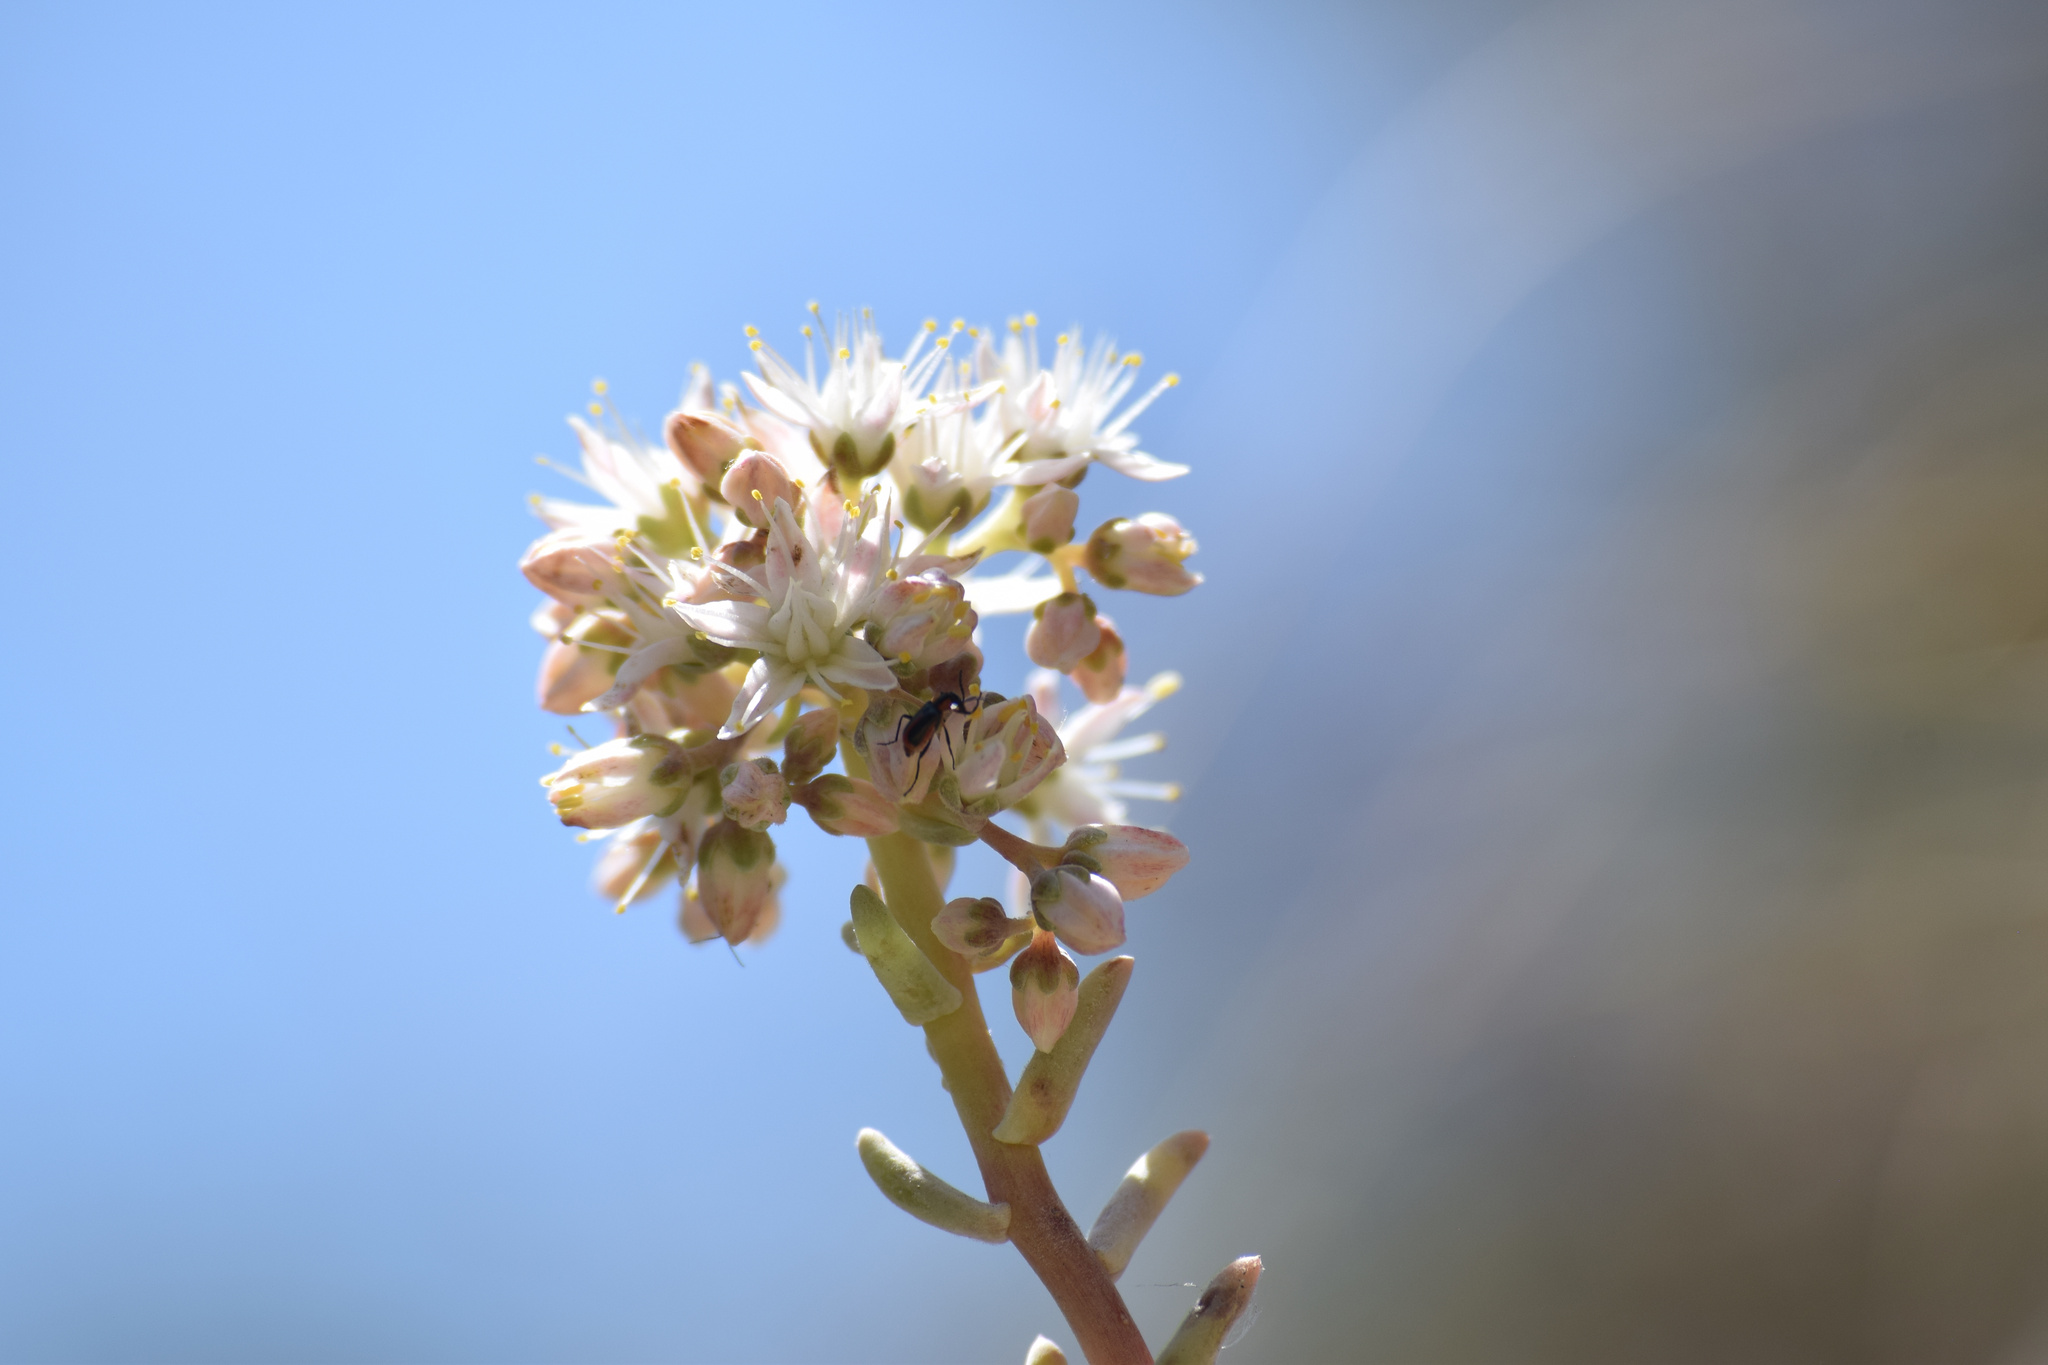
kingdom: Plantae
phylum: Tracheophyta
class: Magnoliopsida
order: Saxifragales
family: Crassulaceae
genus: Dudleya
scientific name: Dudleya densiflora
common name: San gabriel mountains dudleya
